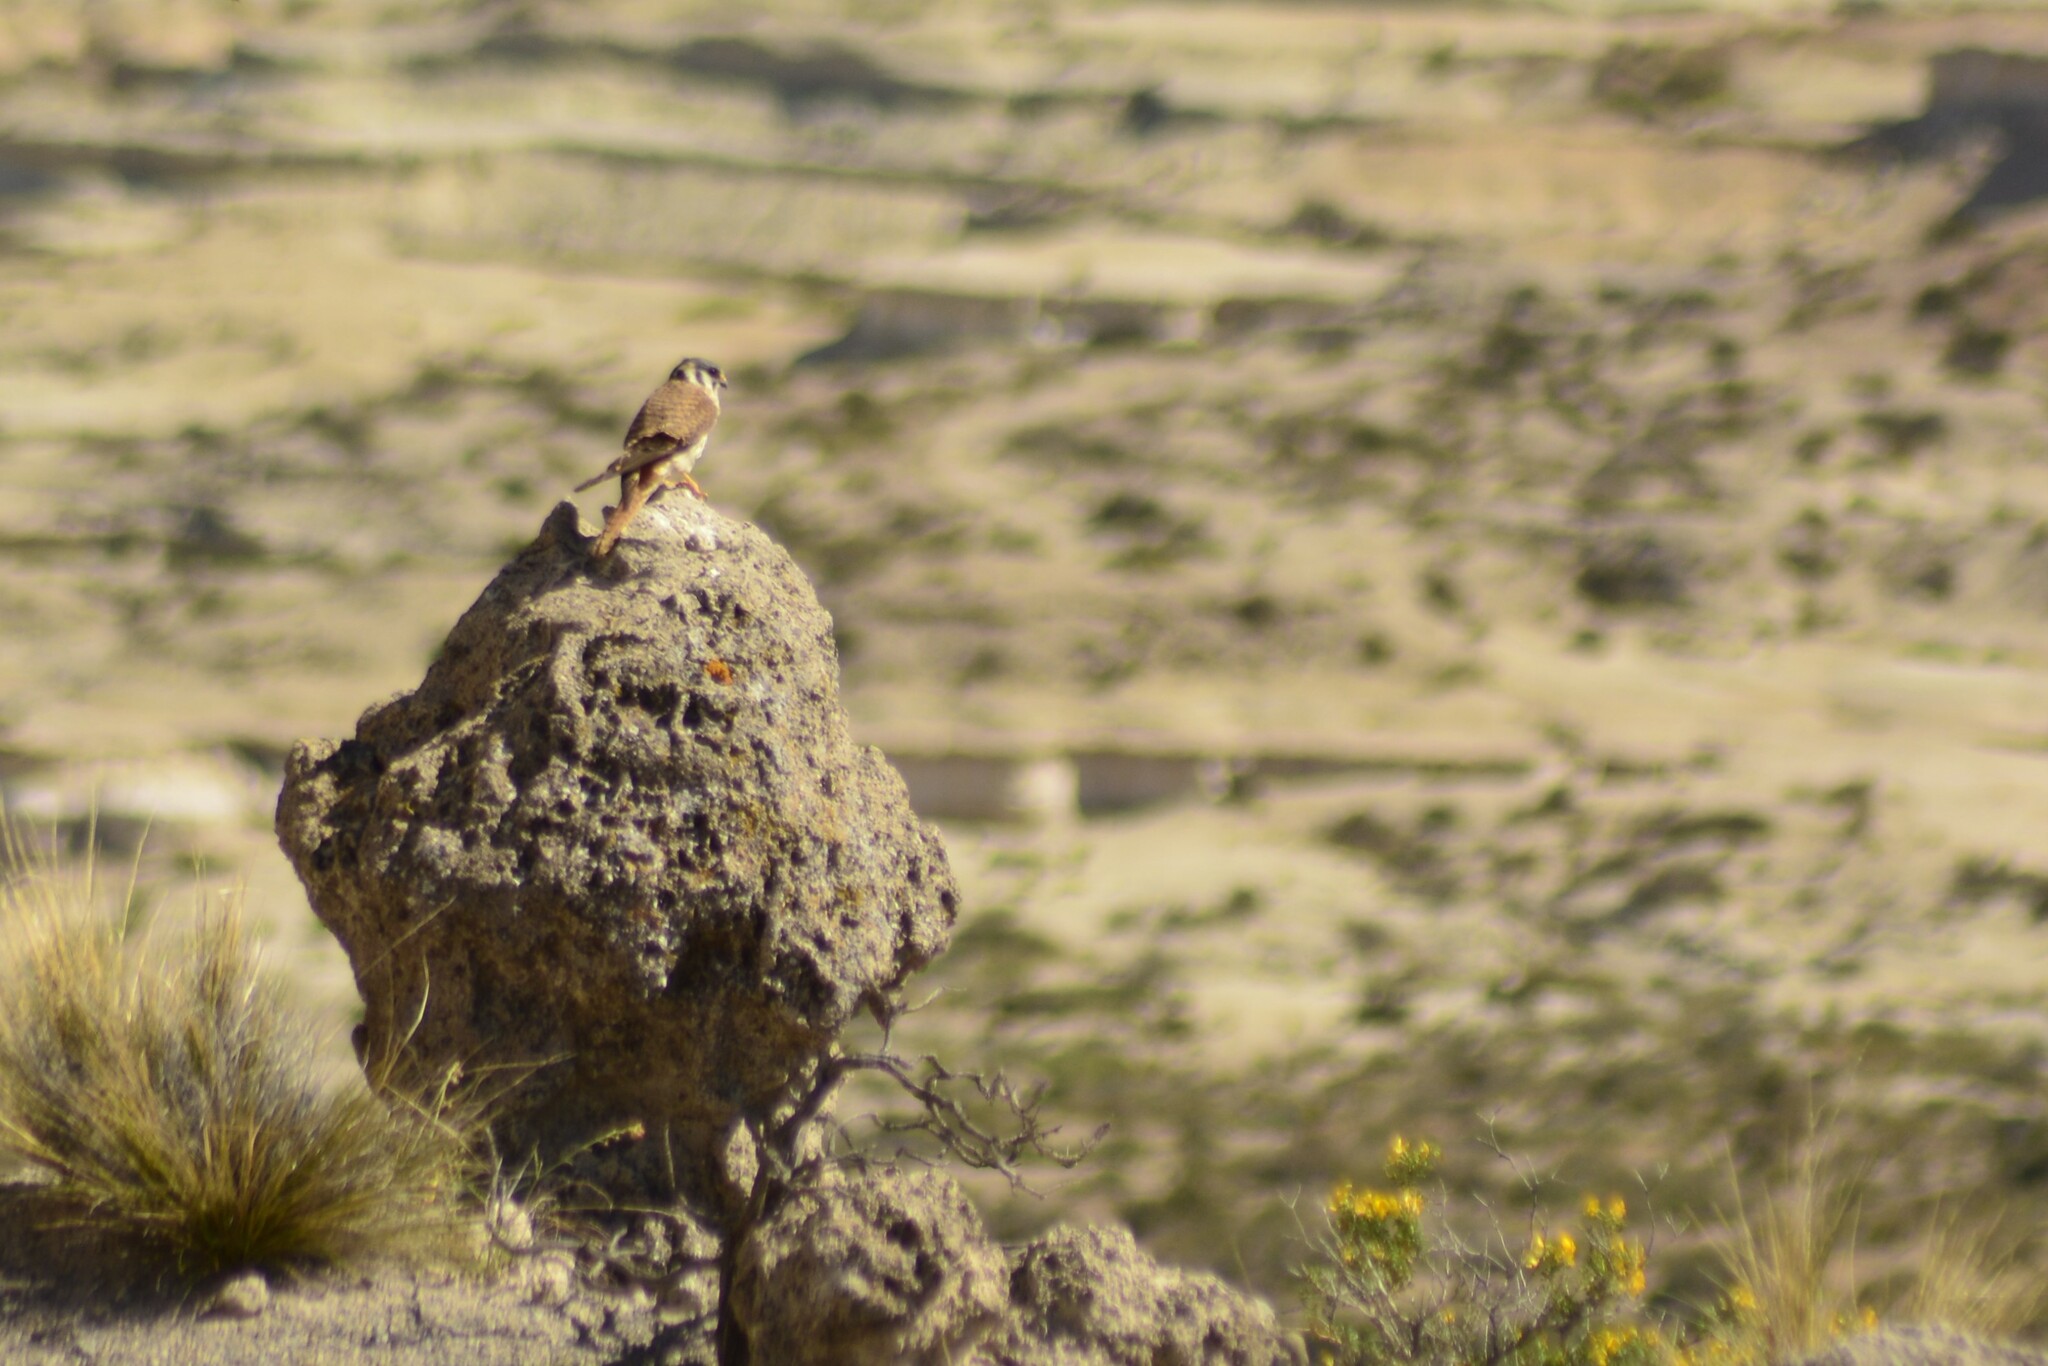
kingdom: Animalia
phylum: Chordata
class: Aves
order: Falconiformes
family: Falconidae
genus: Falco
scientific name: Falco sparverius
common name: American kestrel
